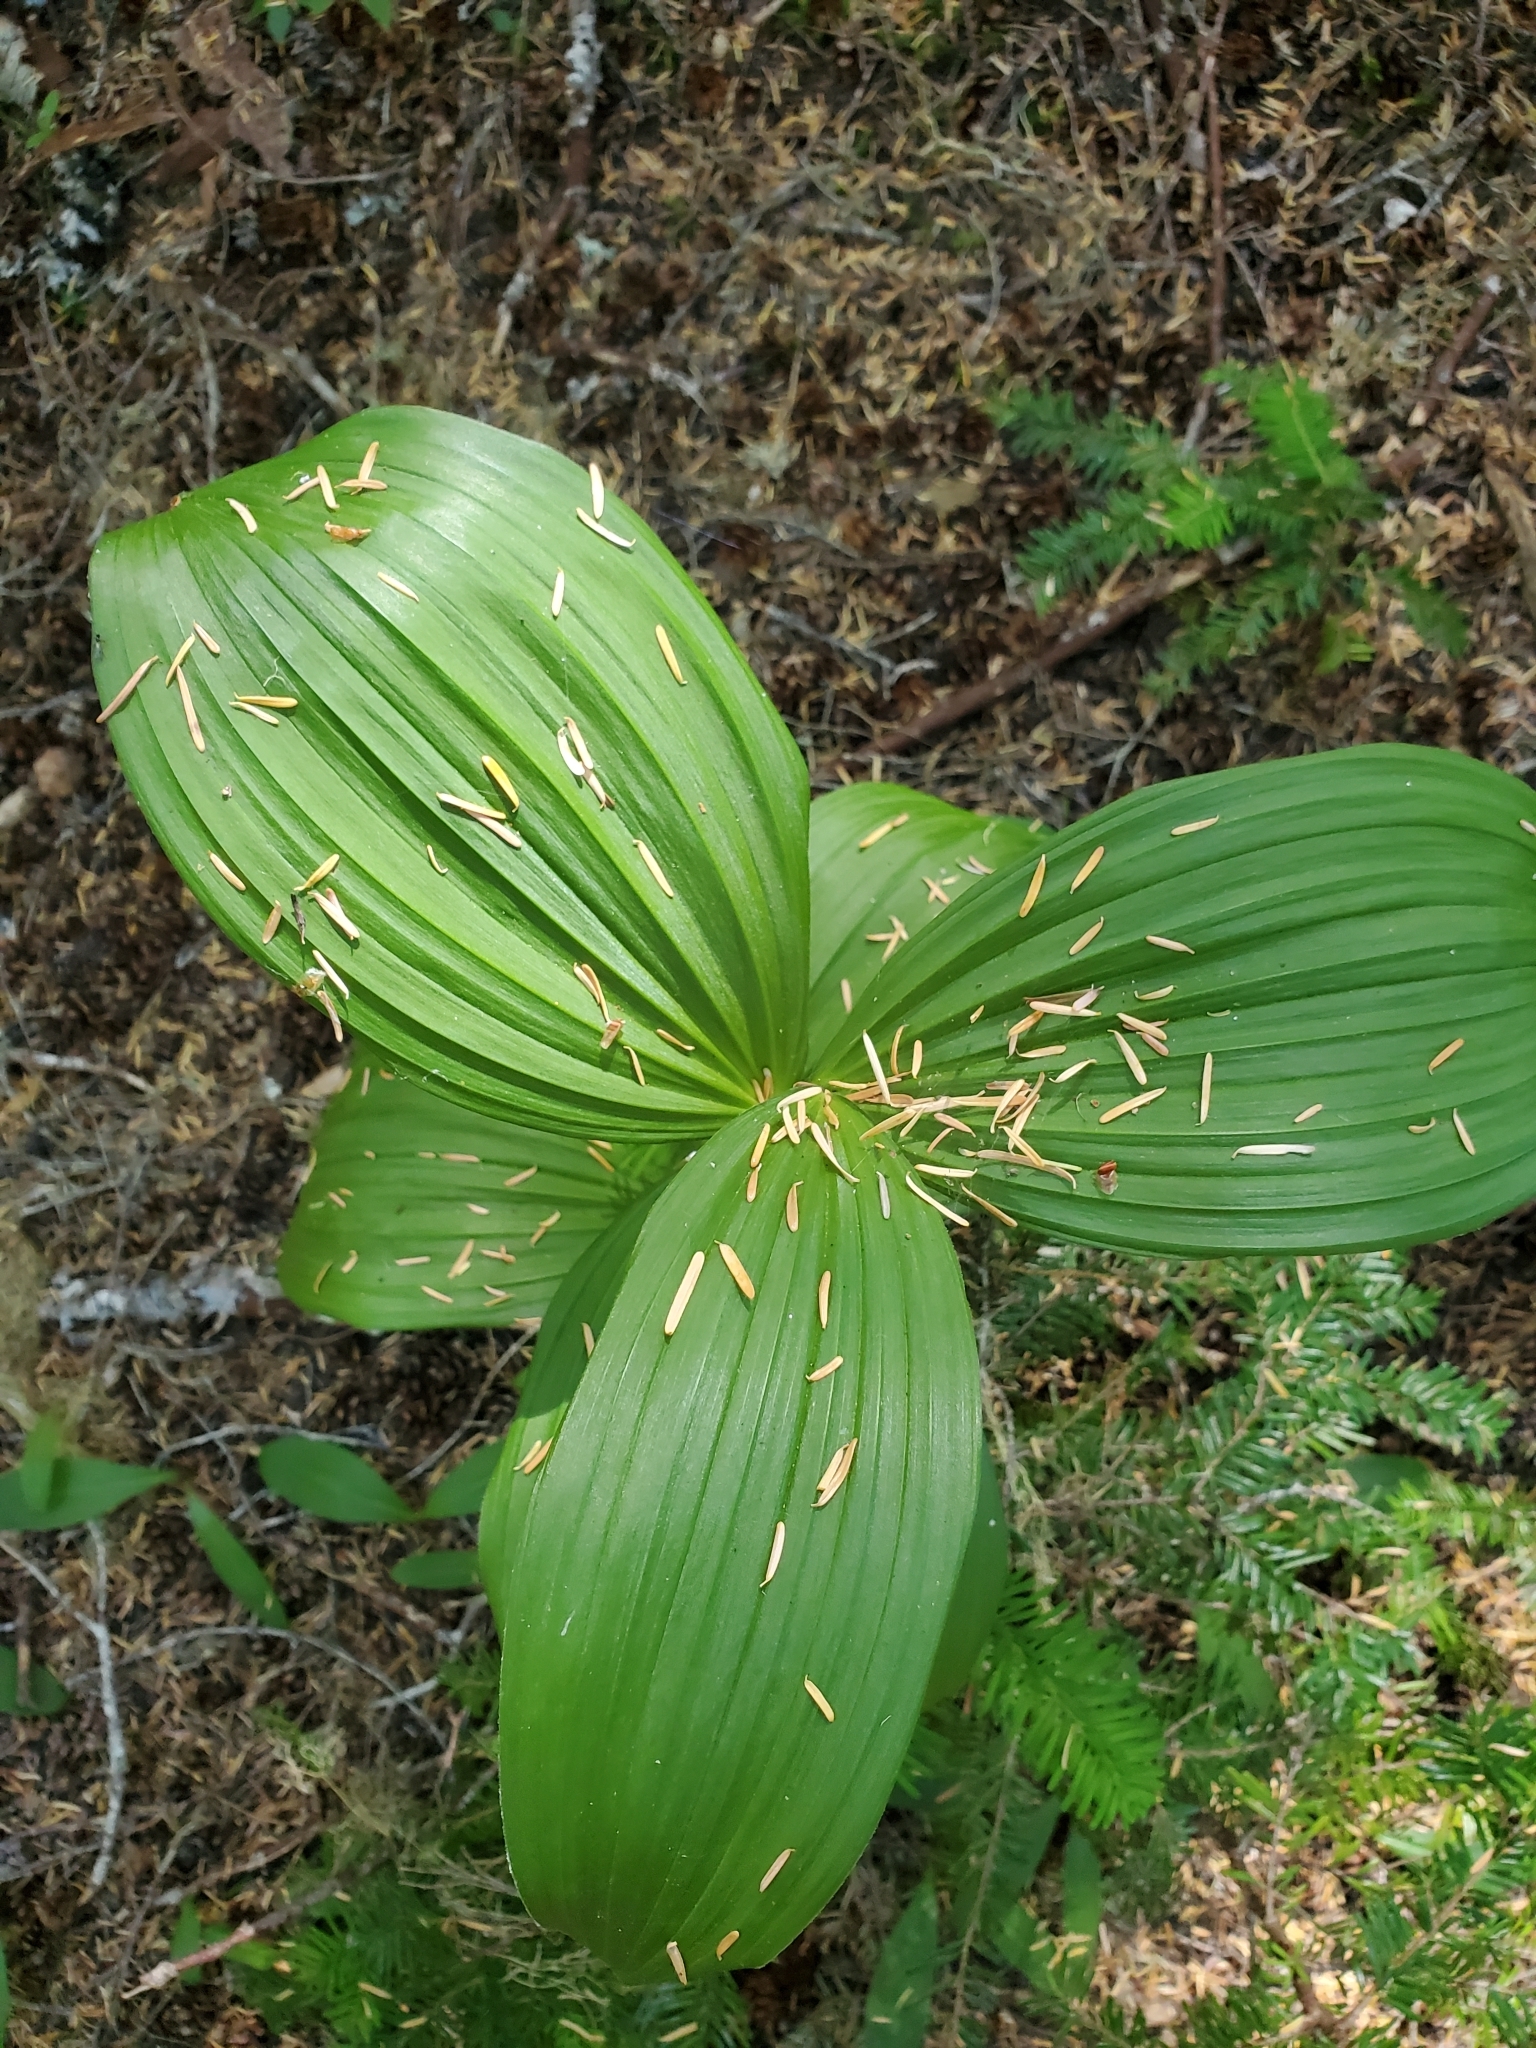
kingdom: Plantae
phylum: Tracheophyta
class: Liliopsida
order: Liliales
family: Melanthiaceae
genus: Veratrum
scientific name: Veratrum viride
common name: American false hellebore
